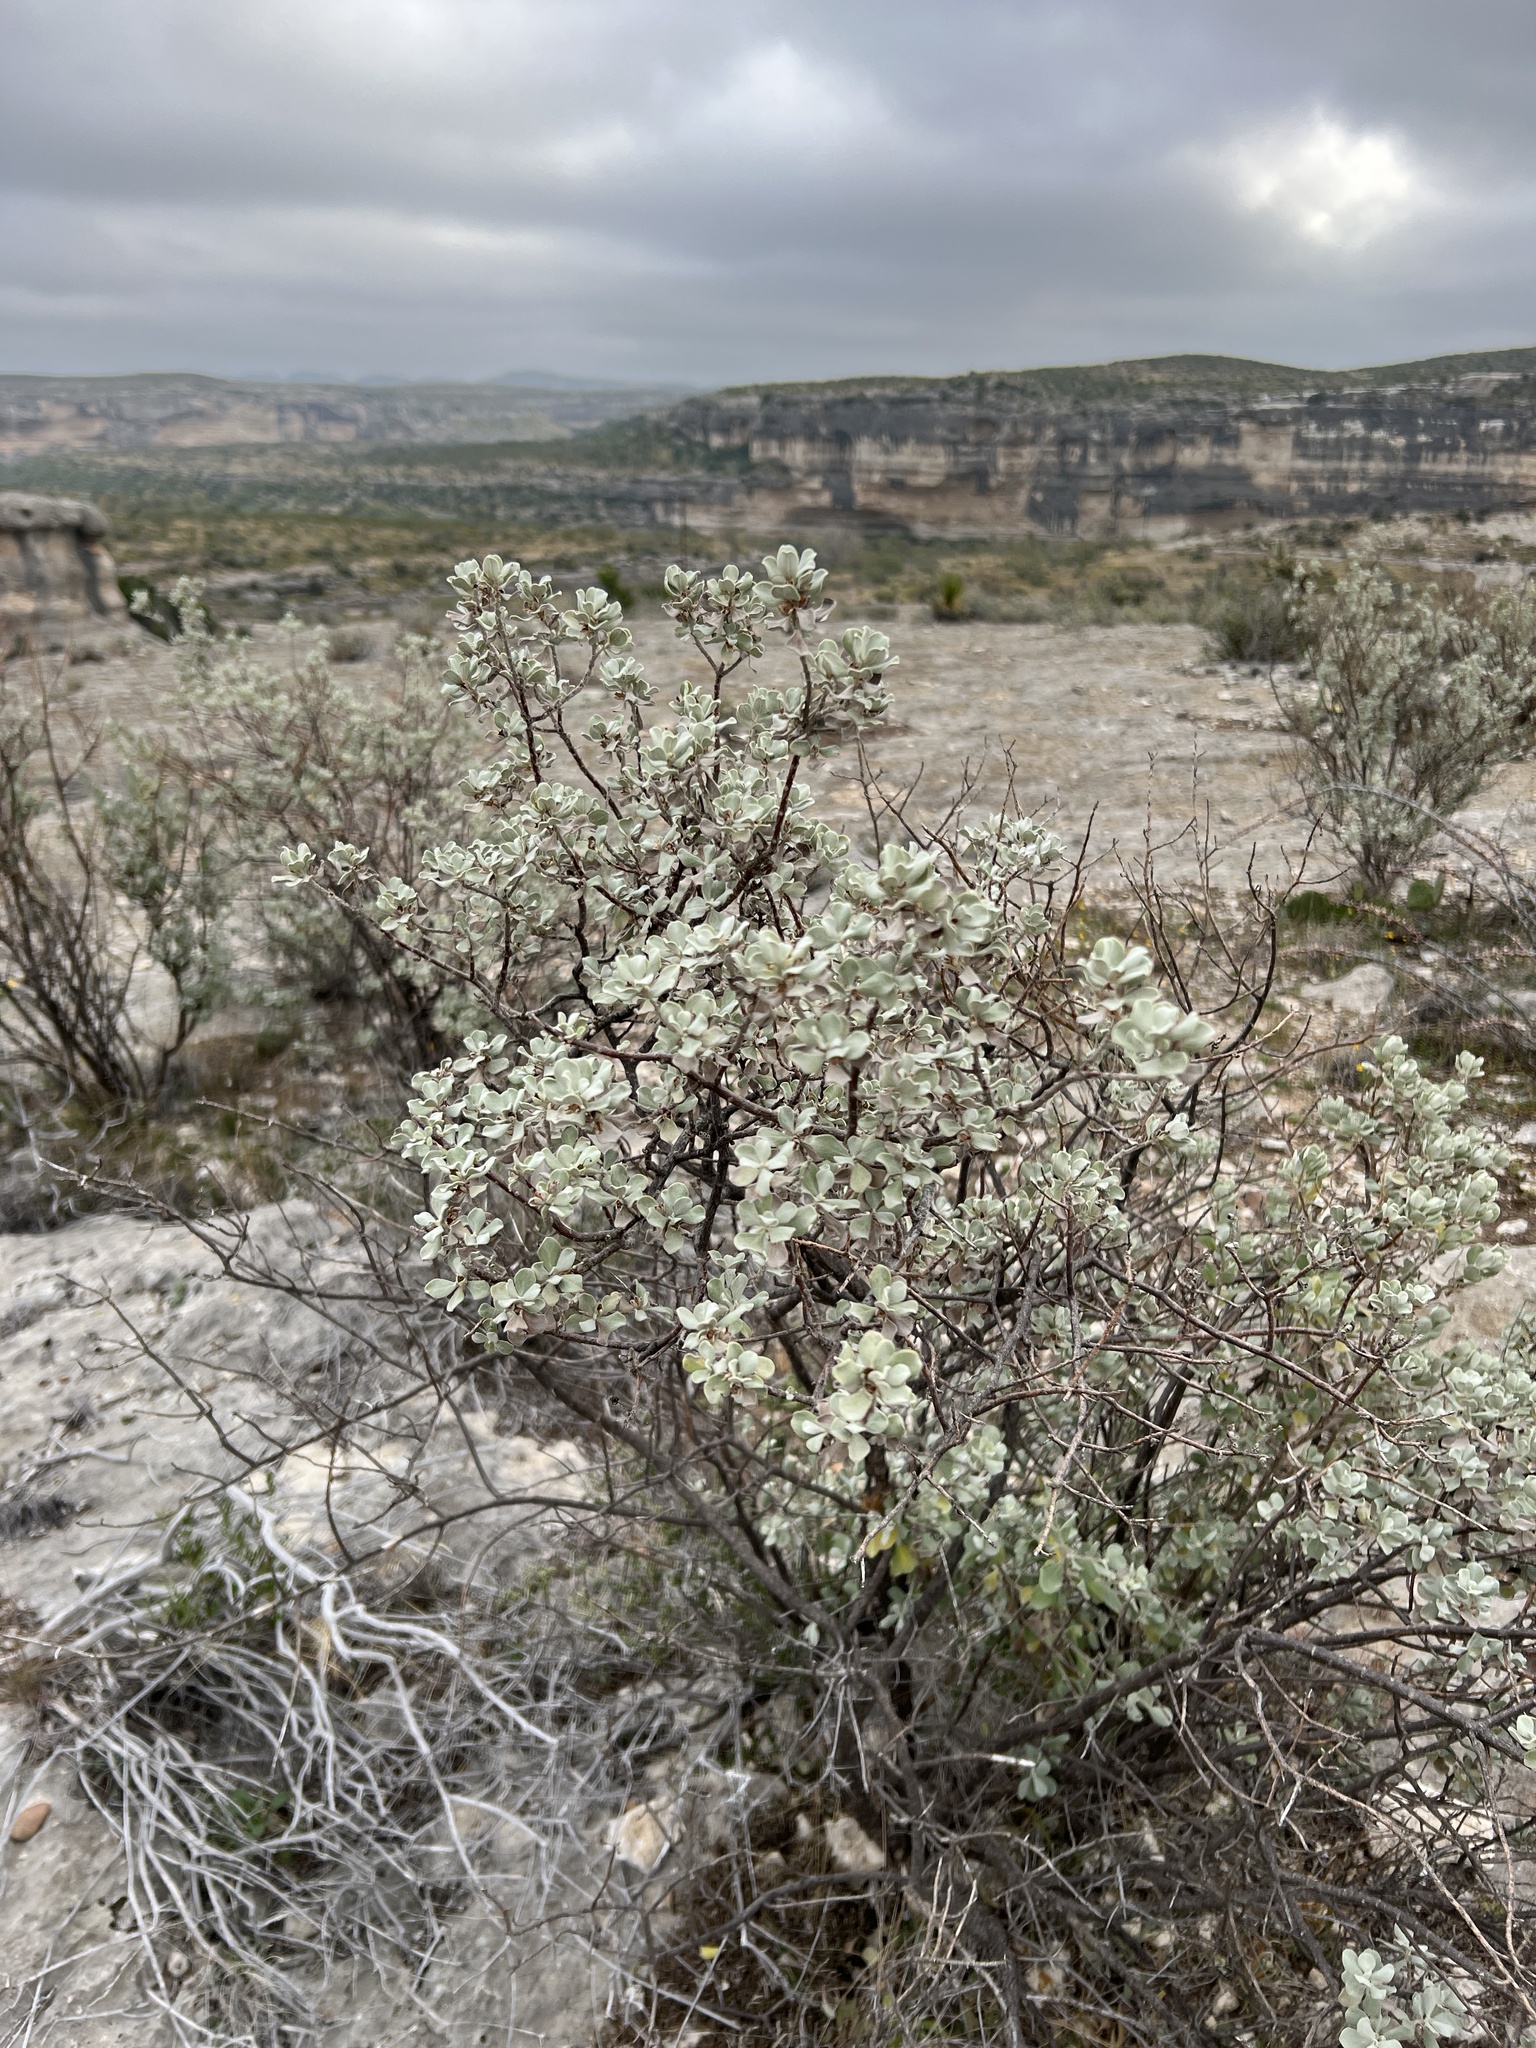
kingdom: Plantae
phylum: Tracheophyta
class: Magnoliopsida
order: Lamiales
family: Scrophulariaceae
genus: Leucophyllum
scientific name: Leucophyllum frutescens
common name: Texas silverleaf
